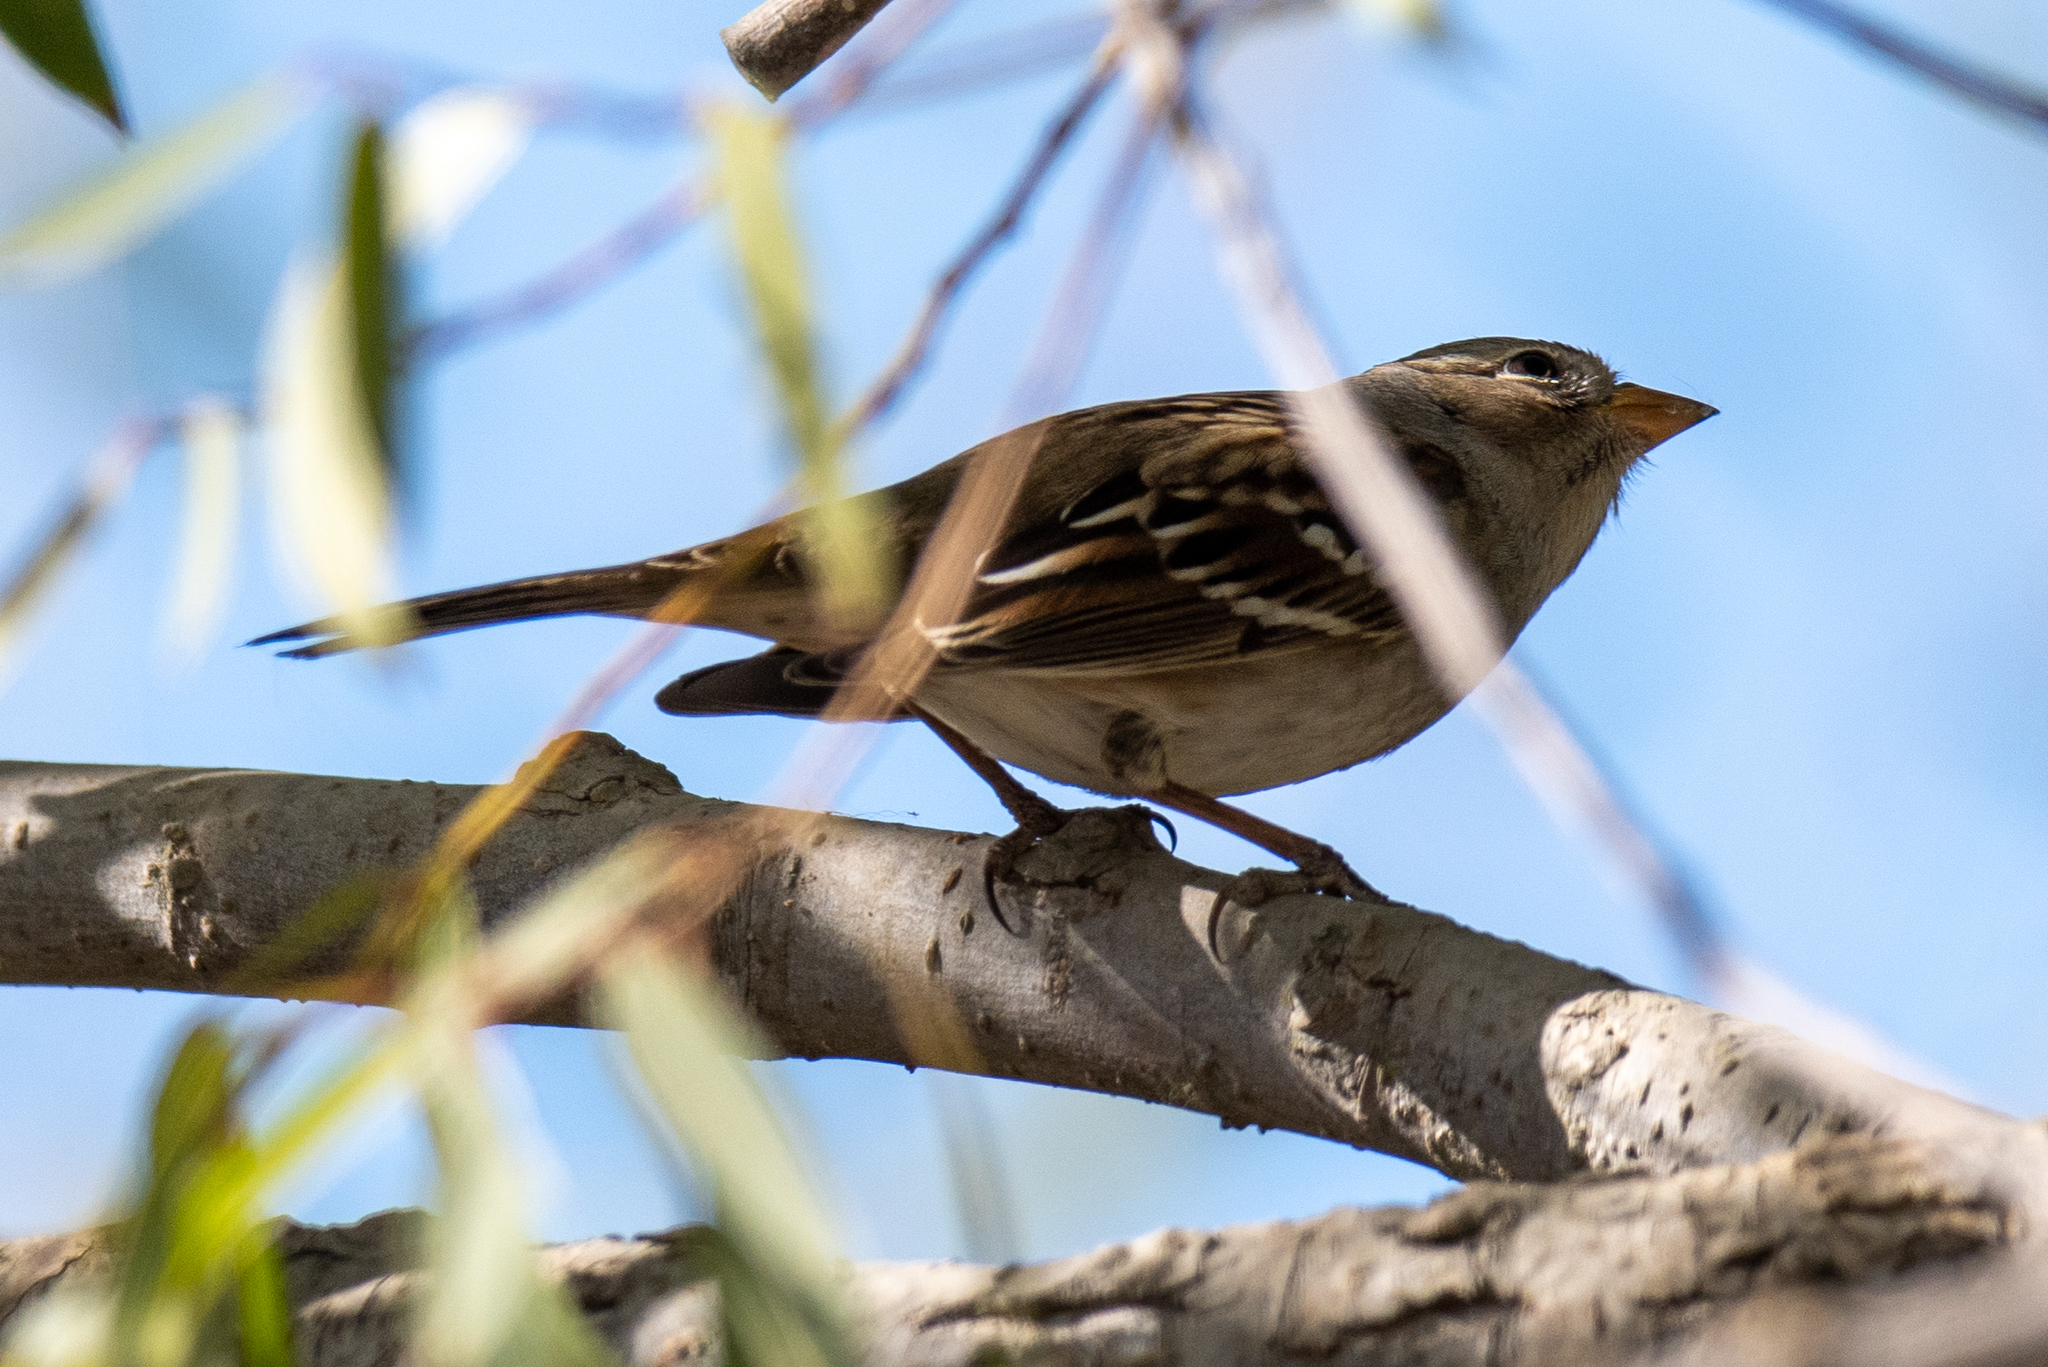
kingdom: Animalia
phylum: Chordata
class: Aves
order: Passeriformes
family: Passerellidae
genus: Zonotrichia
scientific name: Zonotrichia leucophrys
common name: White-crowned sparrow
